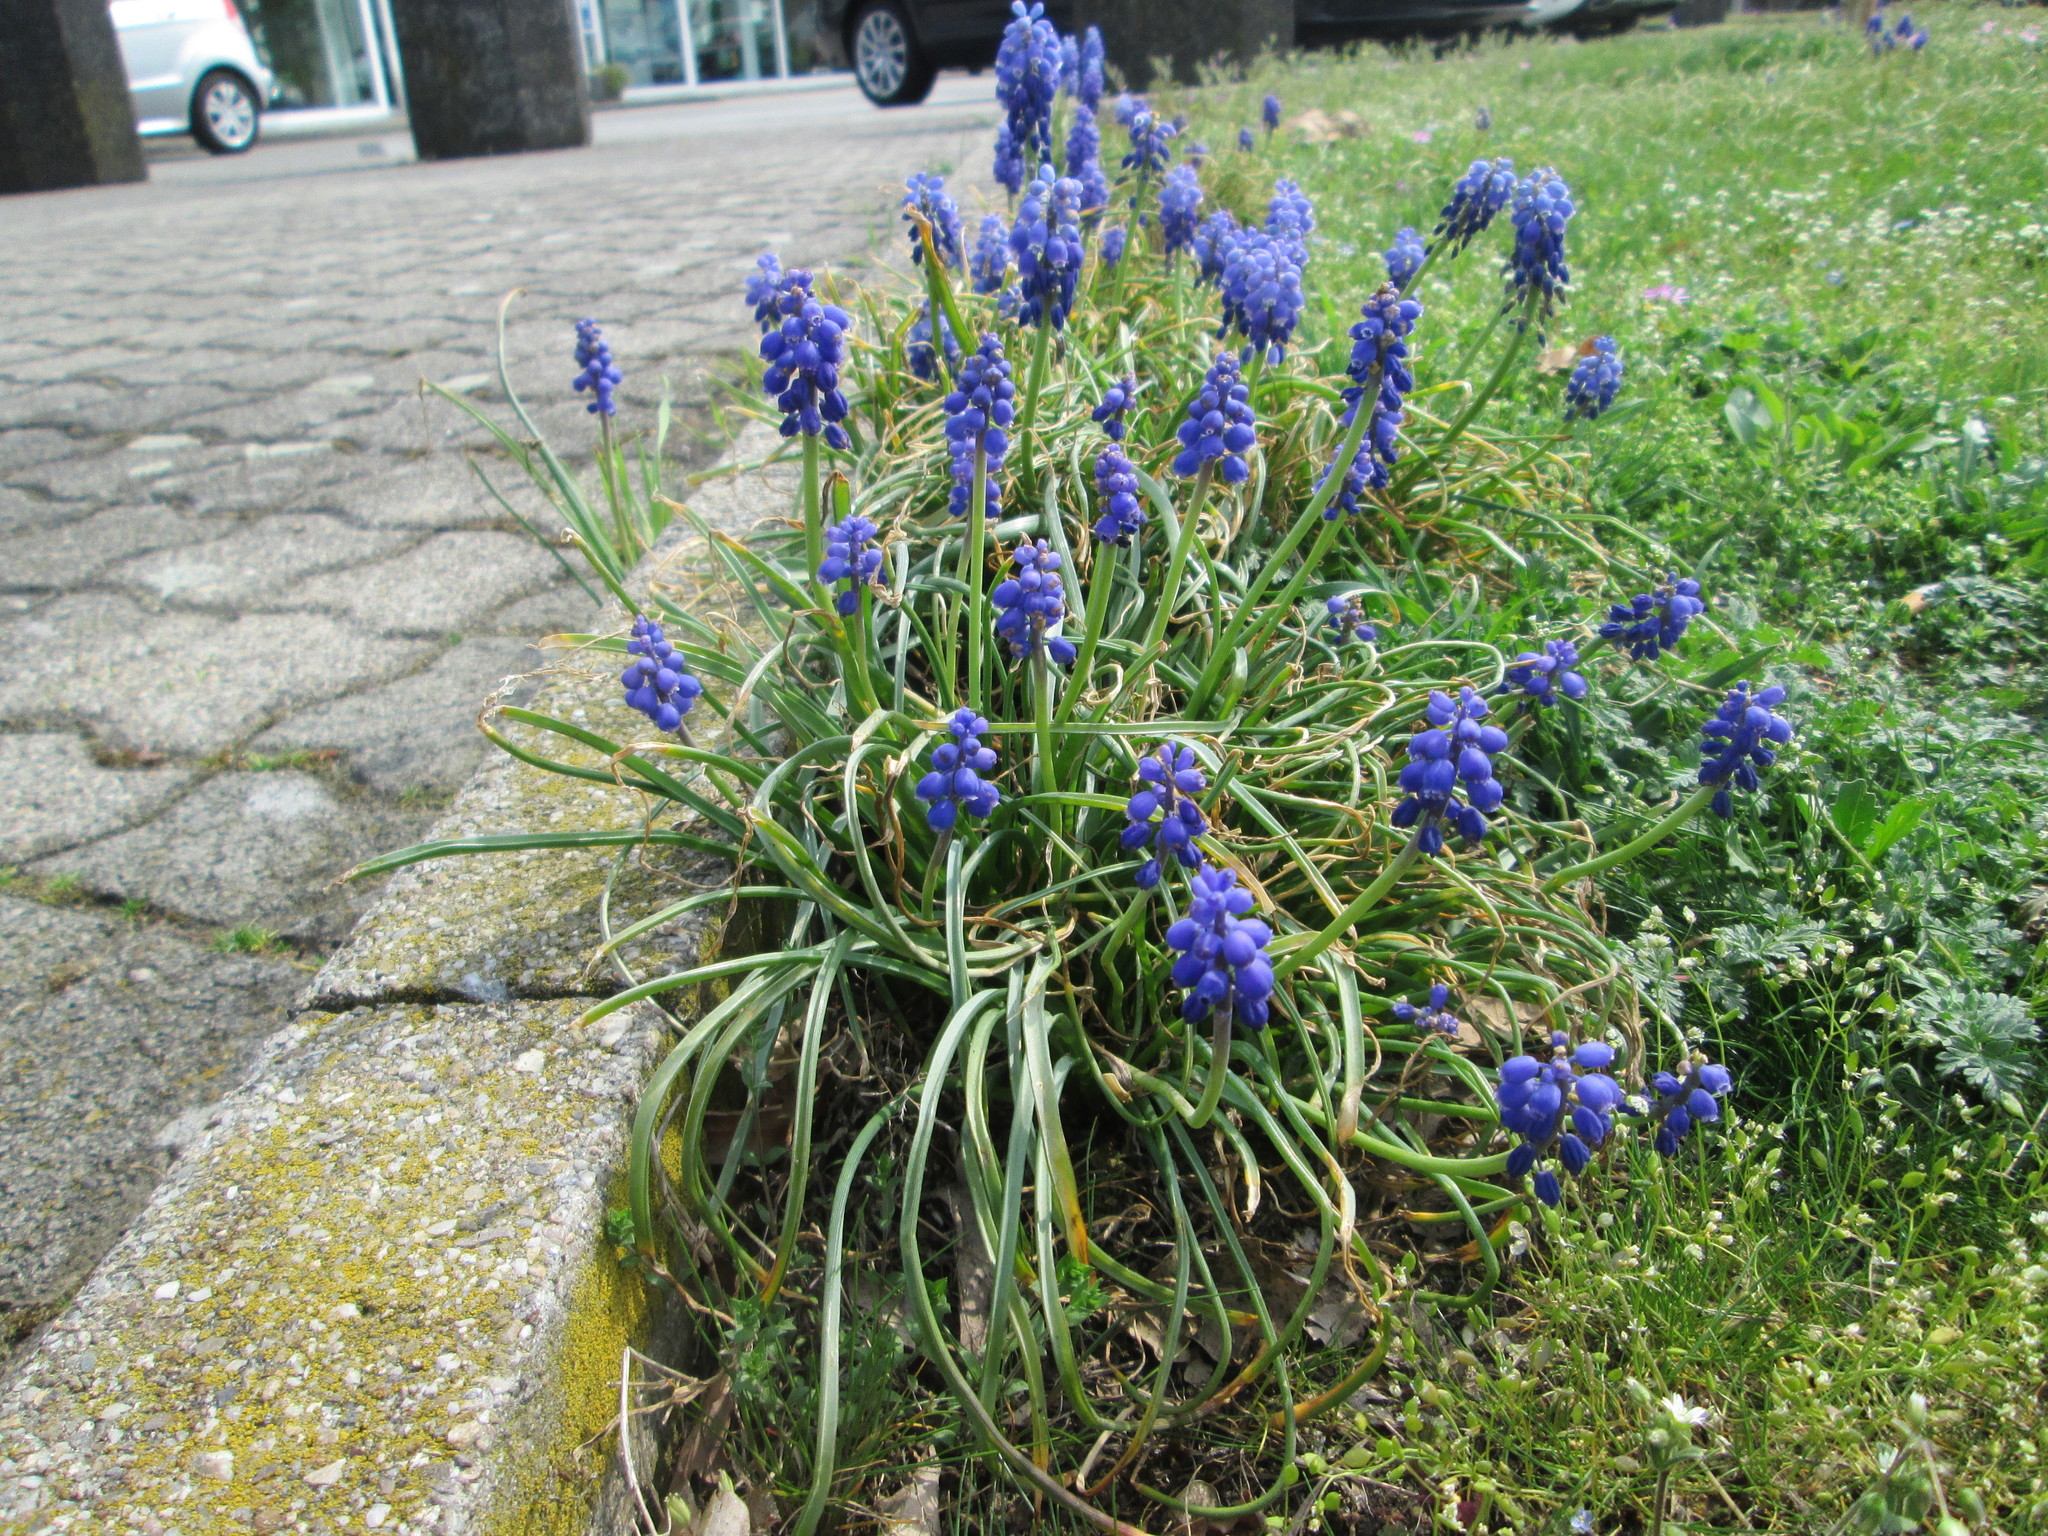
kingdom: Plantae
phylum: Tracheophyta
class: Liliopsida
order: Asparagales
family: Asparagaceae
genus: Muscari
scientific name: Muscari armeniacum
